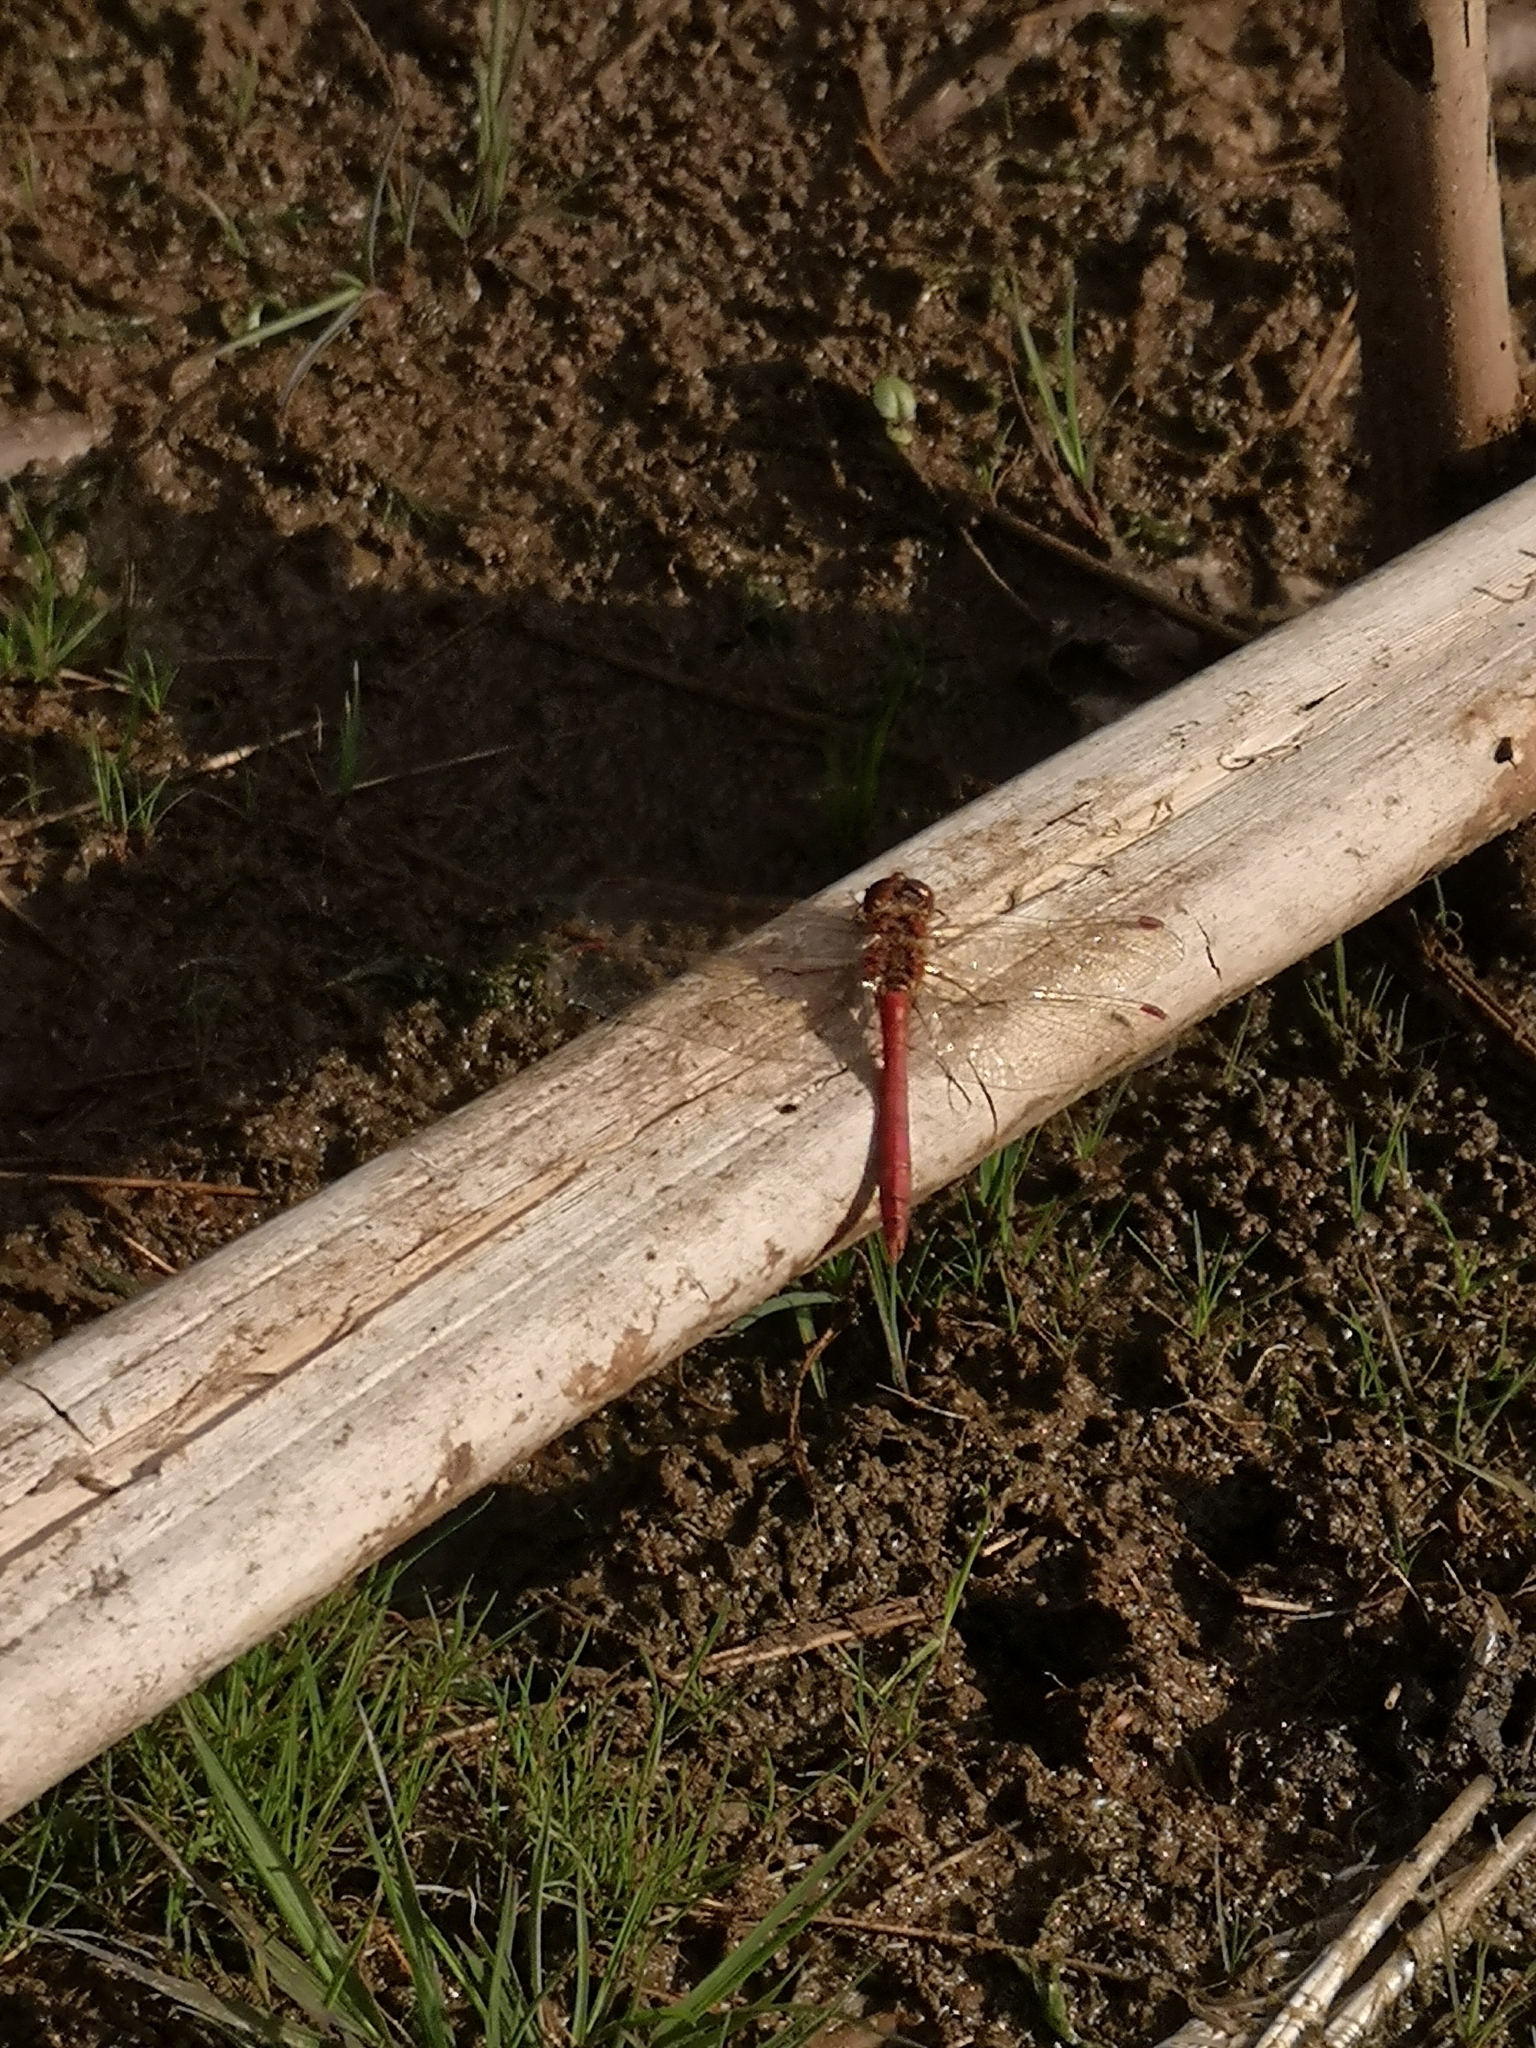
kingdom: Animalia
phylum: Arthropoda
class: Insecta
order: Odonata
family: Libellulidae
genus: Sympetrum
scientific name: Sympetrum vulgatum
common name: Vagrant darter
